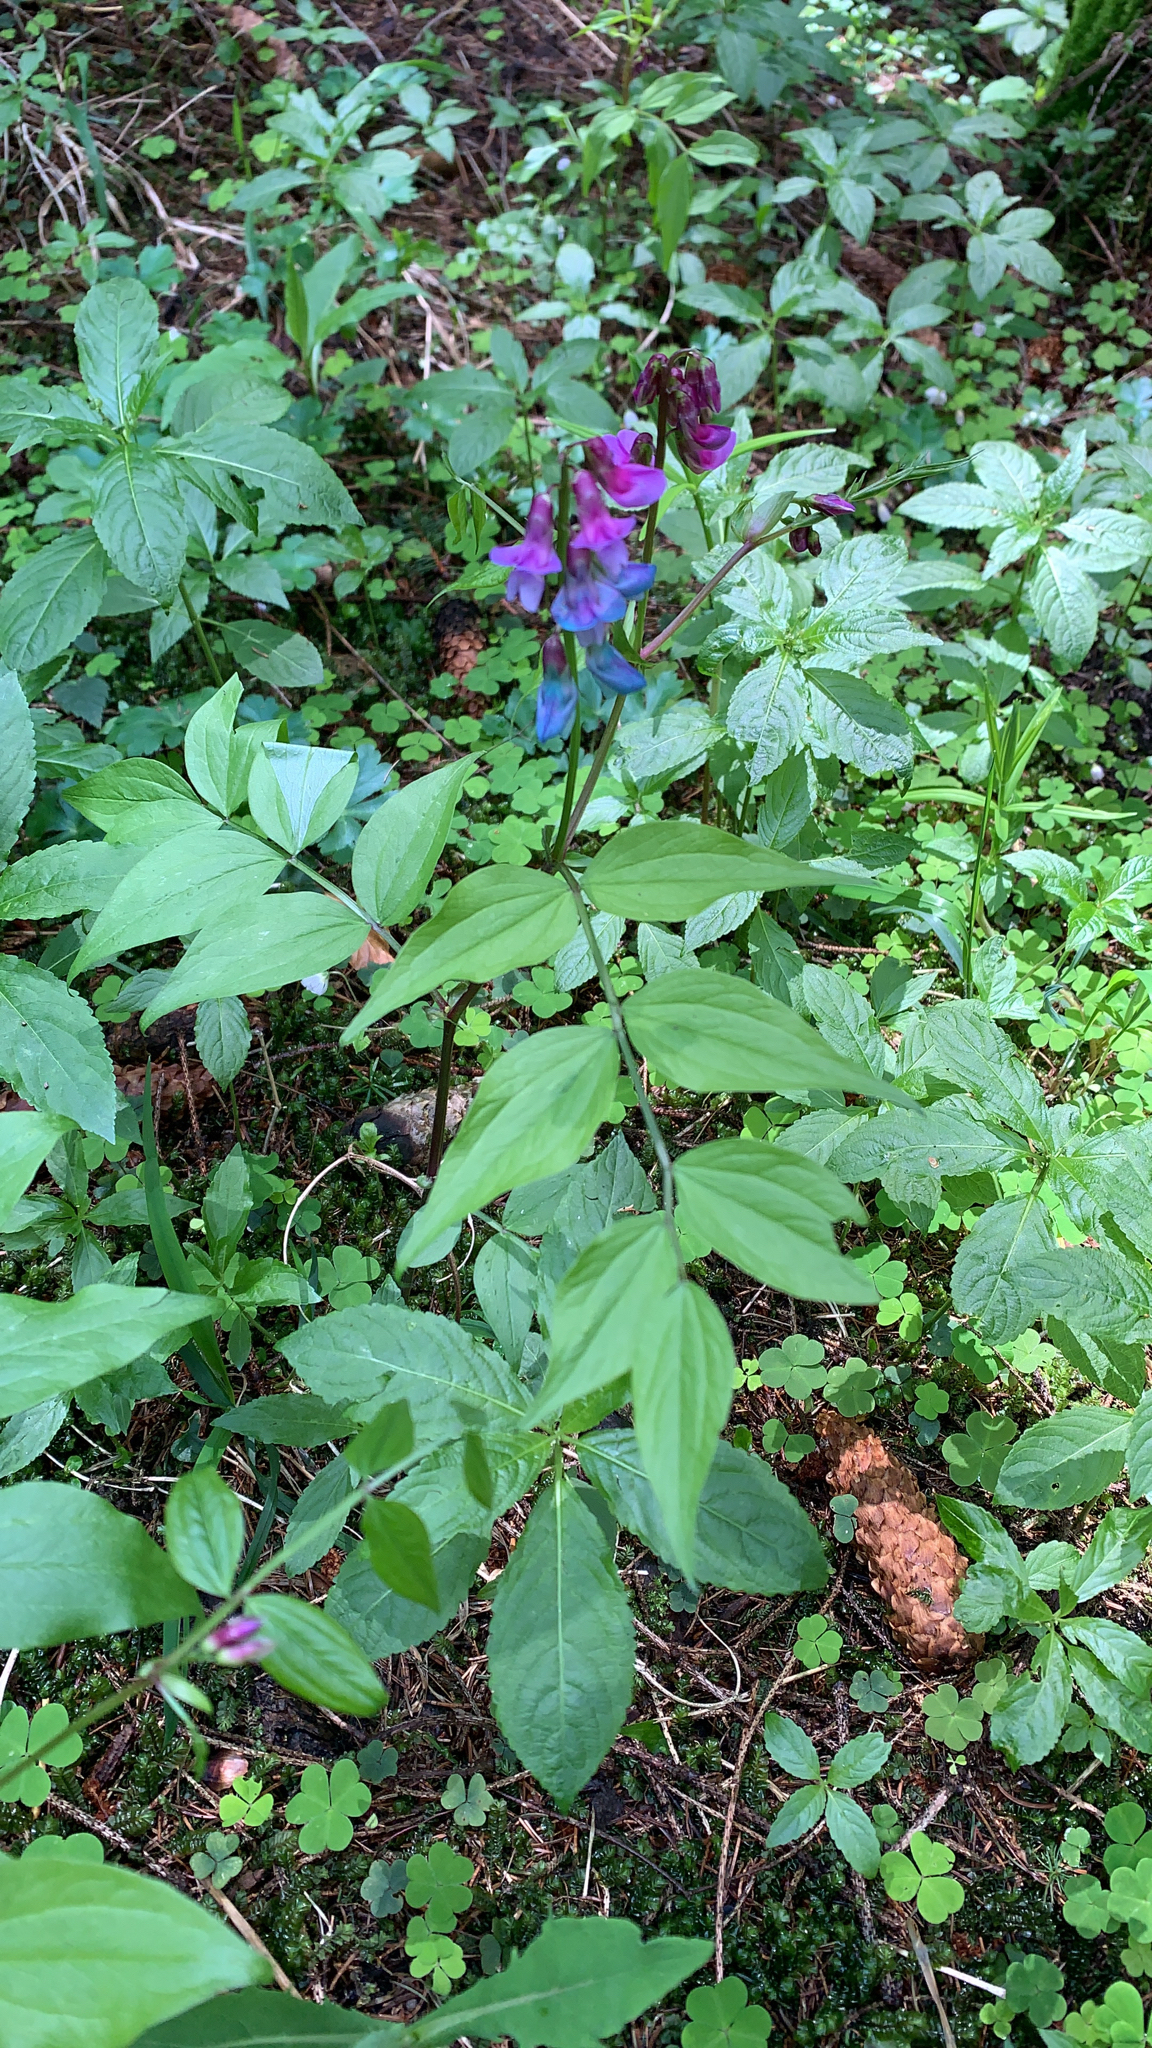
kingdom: Plantae
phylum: Tracheophyta
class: Magnoliopsida
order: Fabales
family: Fabaceae
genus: Lathyrus
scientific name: Lathyrus vernus
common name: Spring pea
